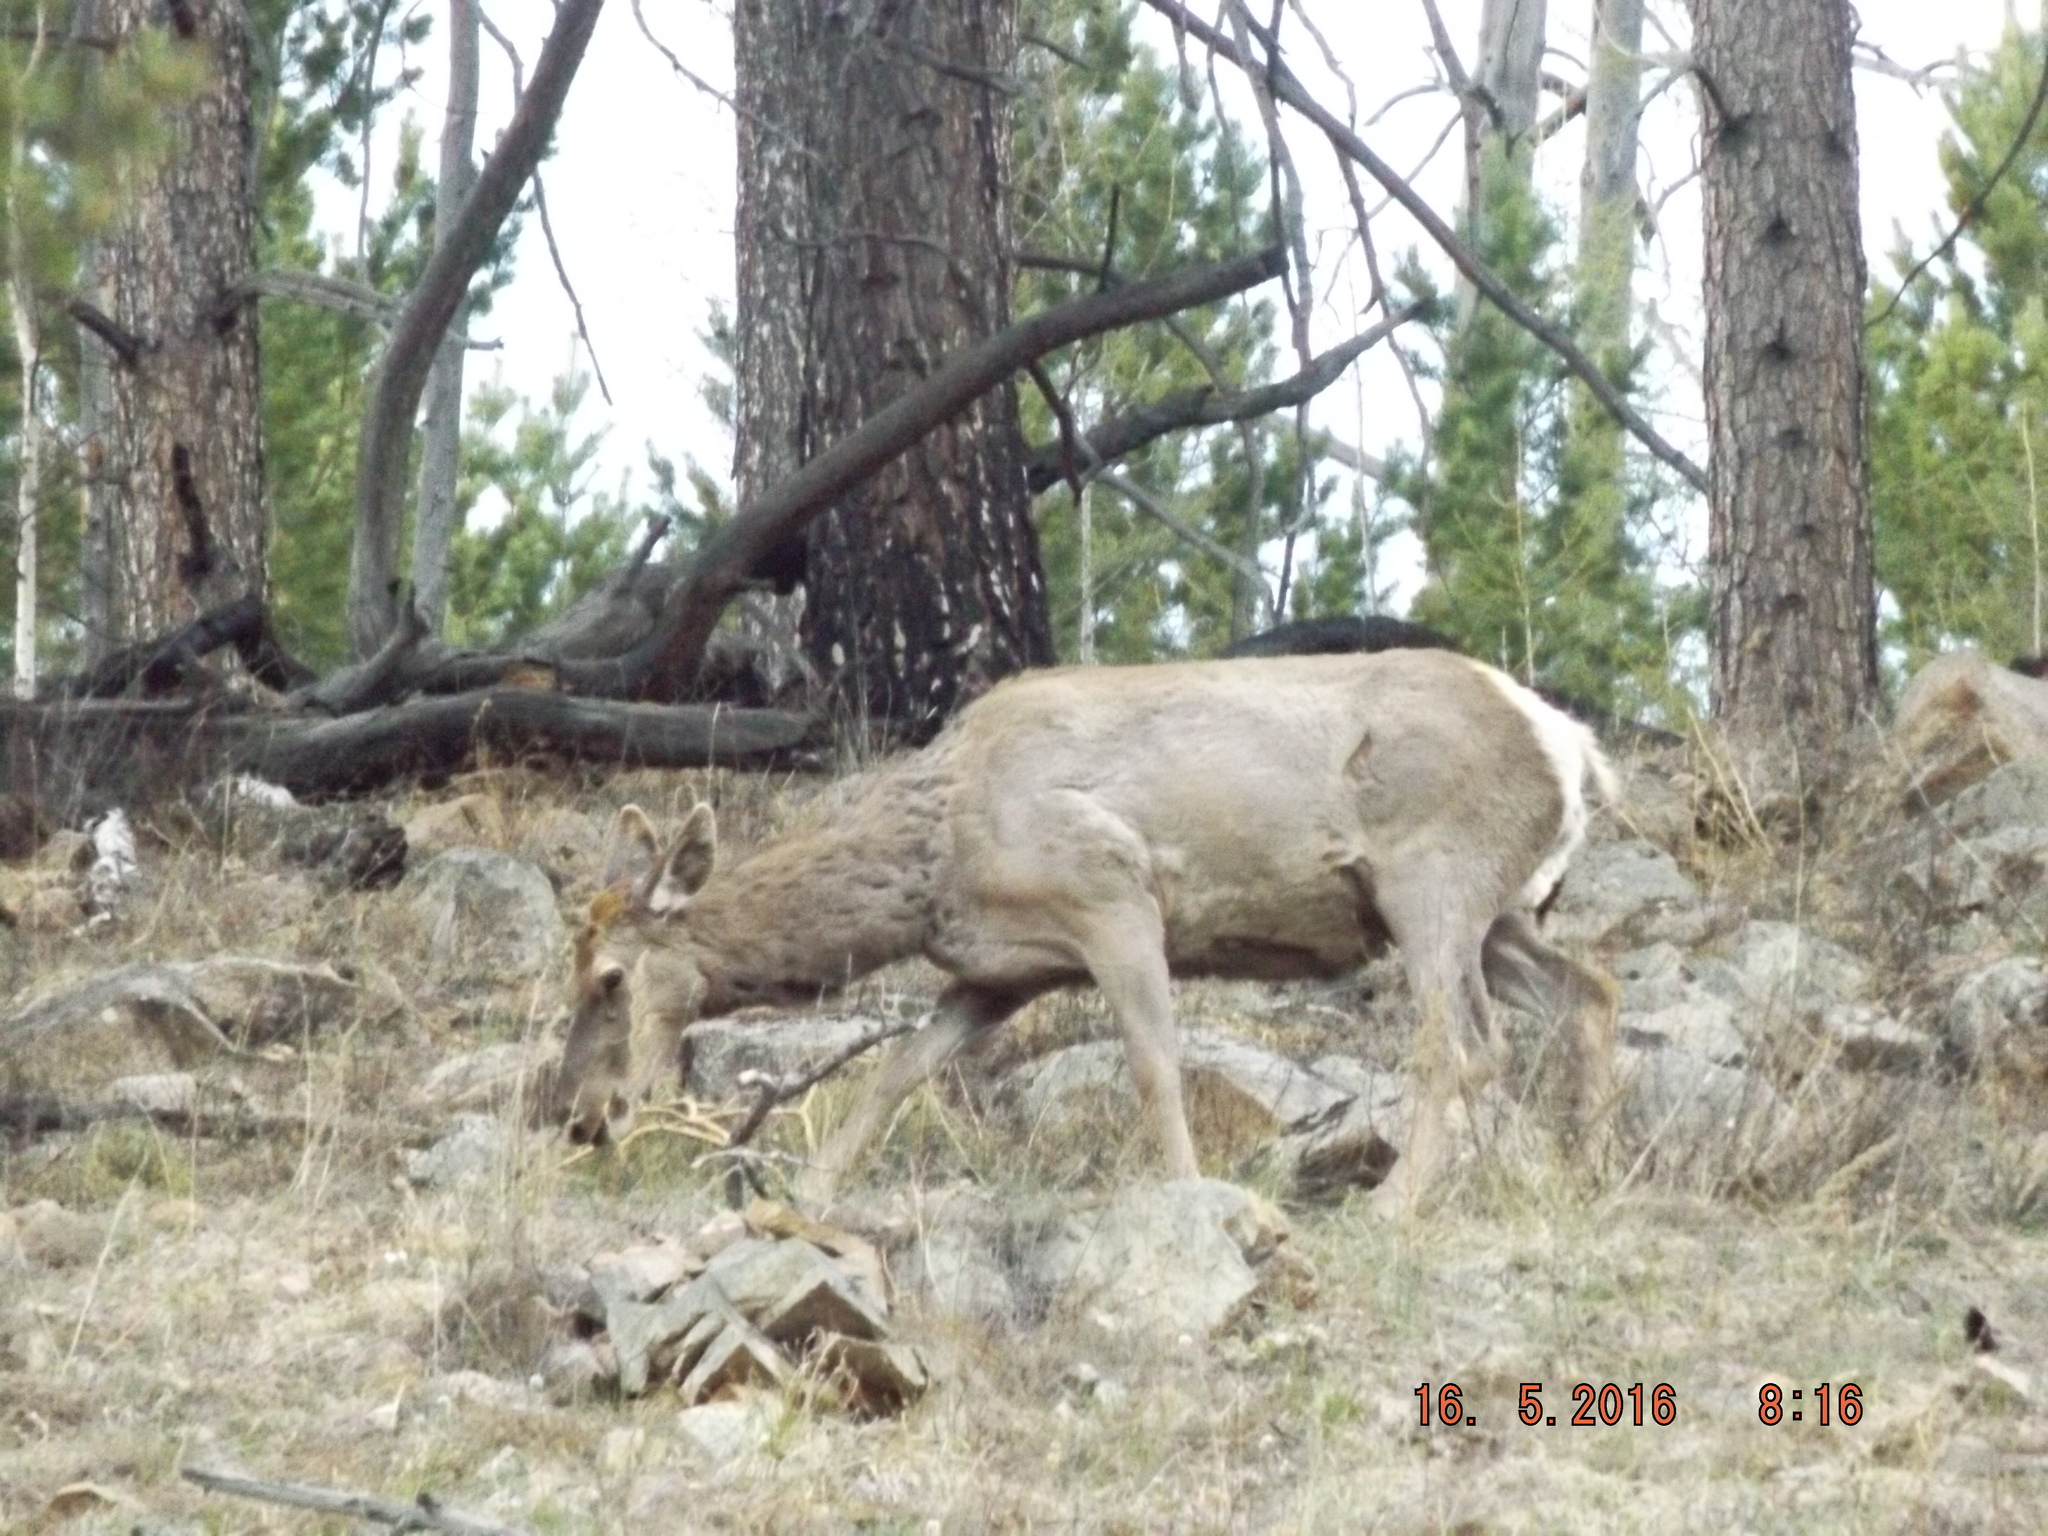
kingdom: Animalia
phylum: Chordata
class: Mammalia
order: Artiodactyla
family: Cervidae
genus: Cervus
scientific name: Cervus elaphus
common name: Red deer
